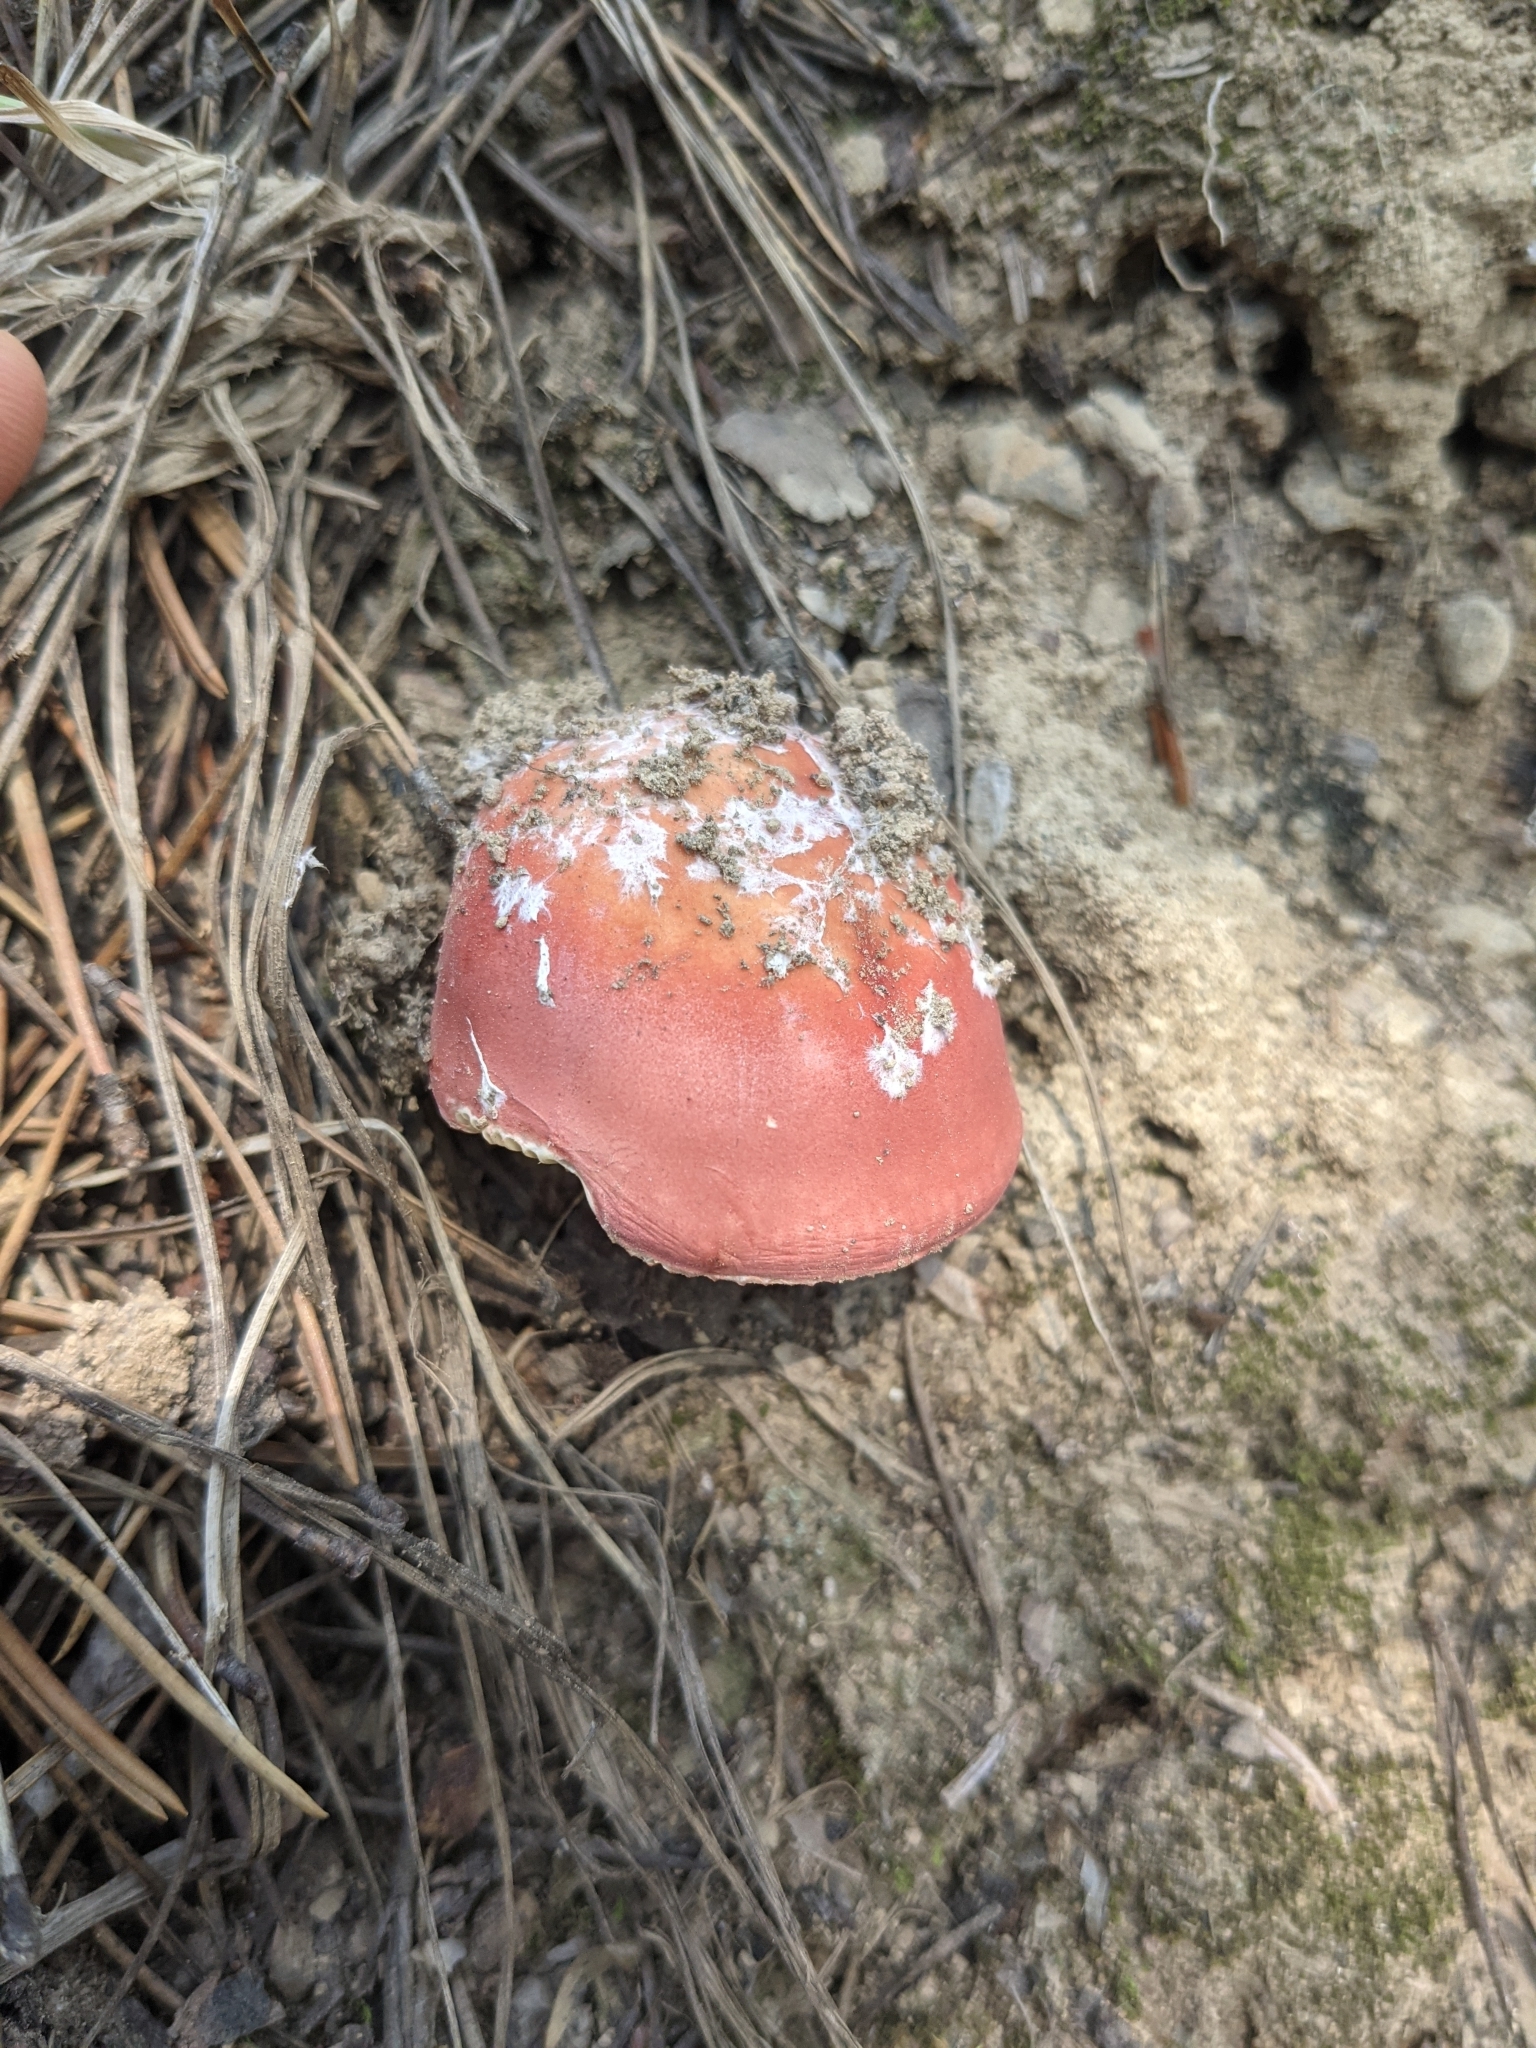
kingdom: Fungi
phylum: Basidiomycota
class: Agaricomycetes
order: Russulales
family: Russulaceae
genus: Russula
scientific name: Russula sanguinea
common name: Bloody brittlegill
